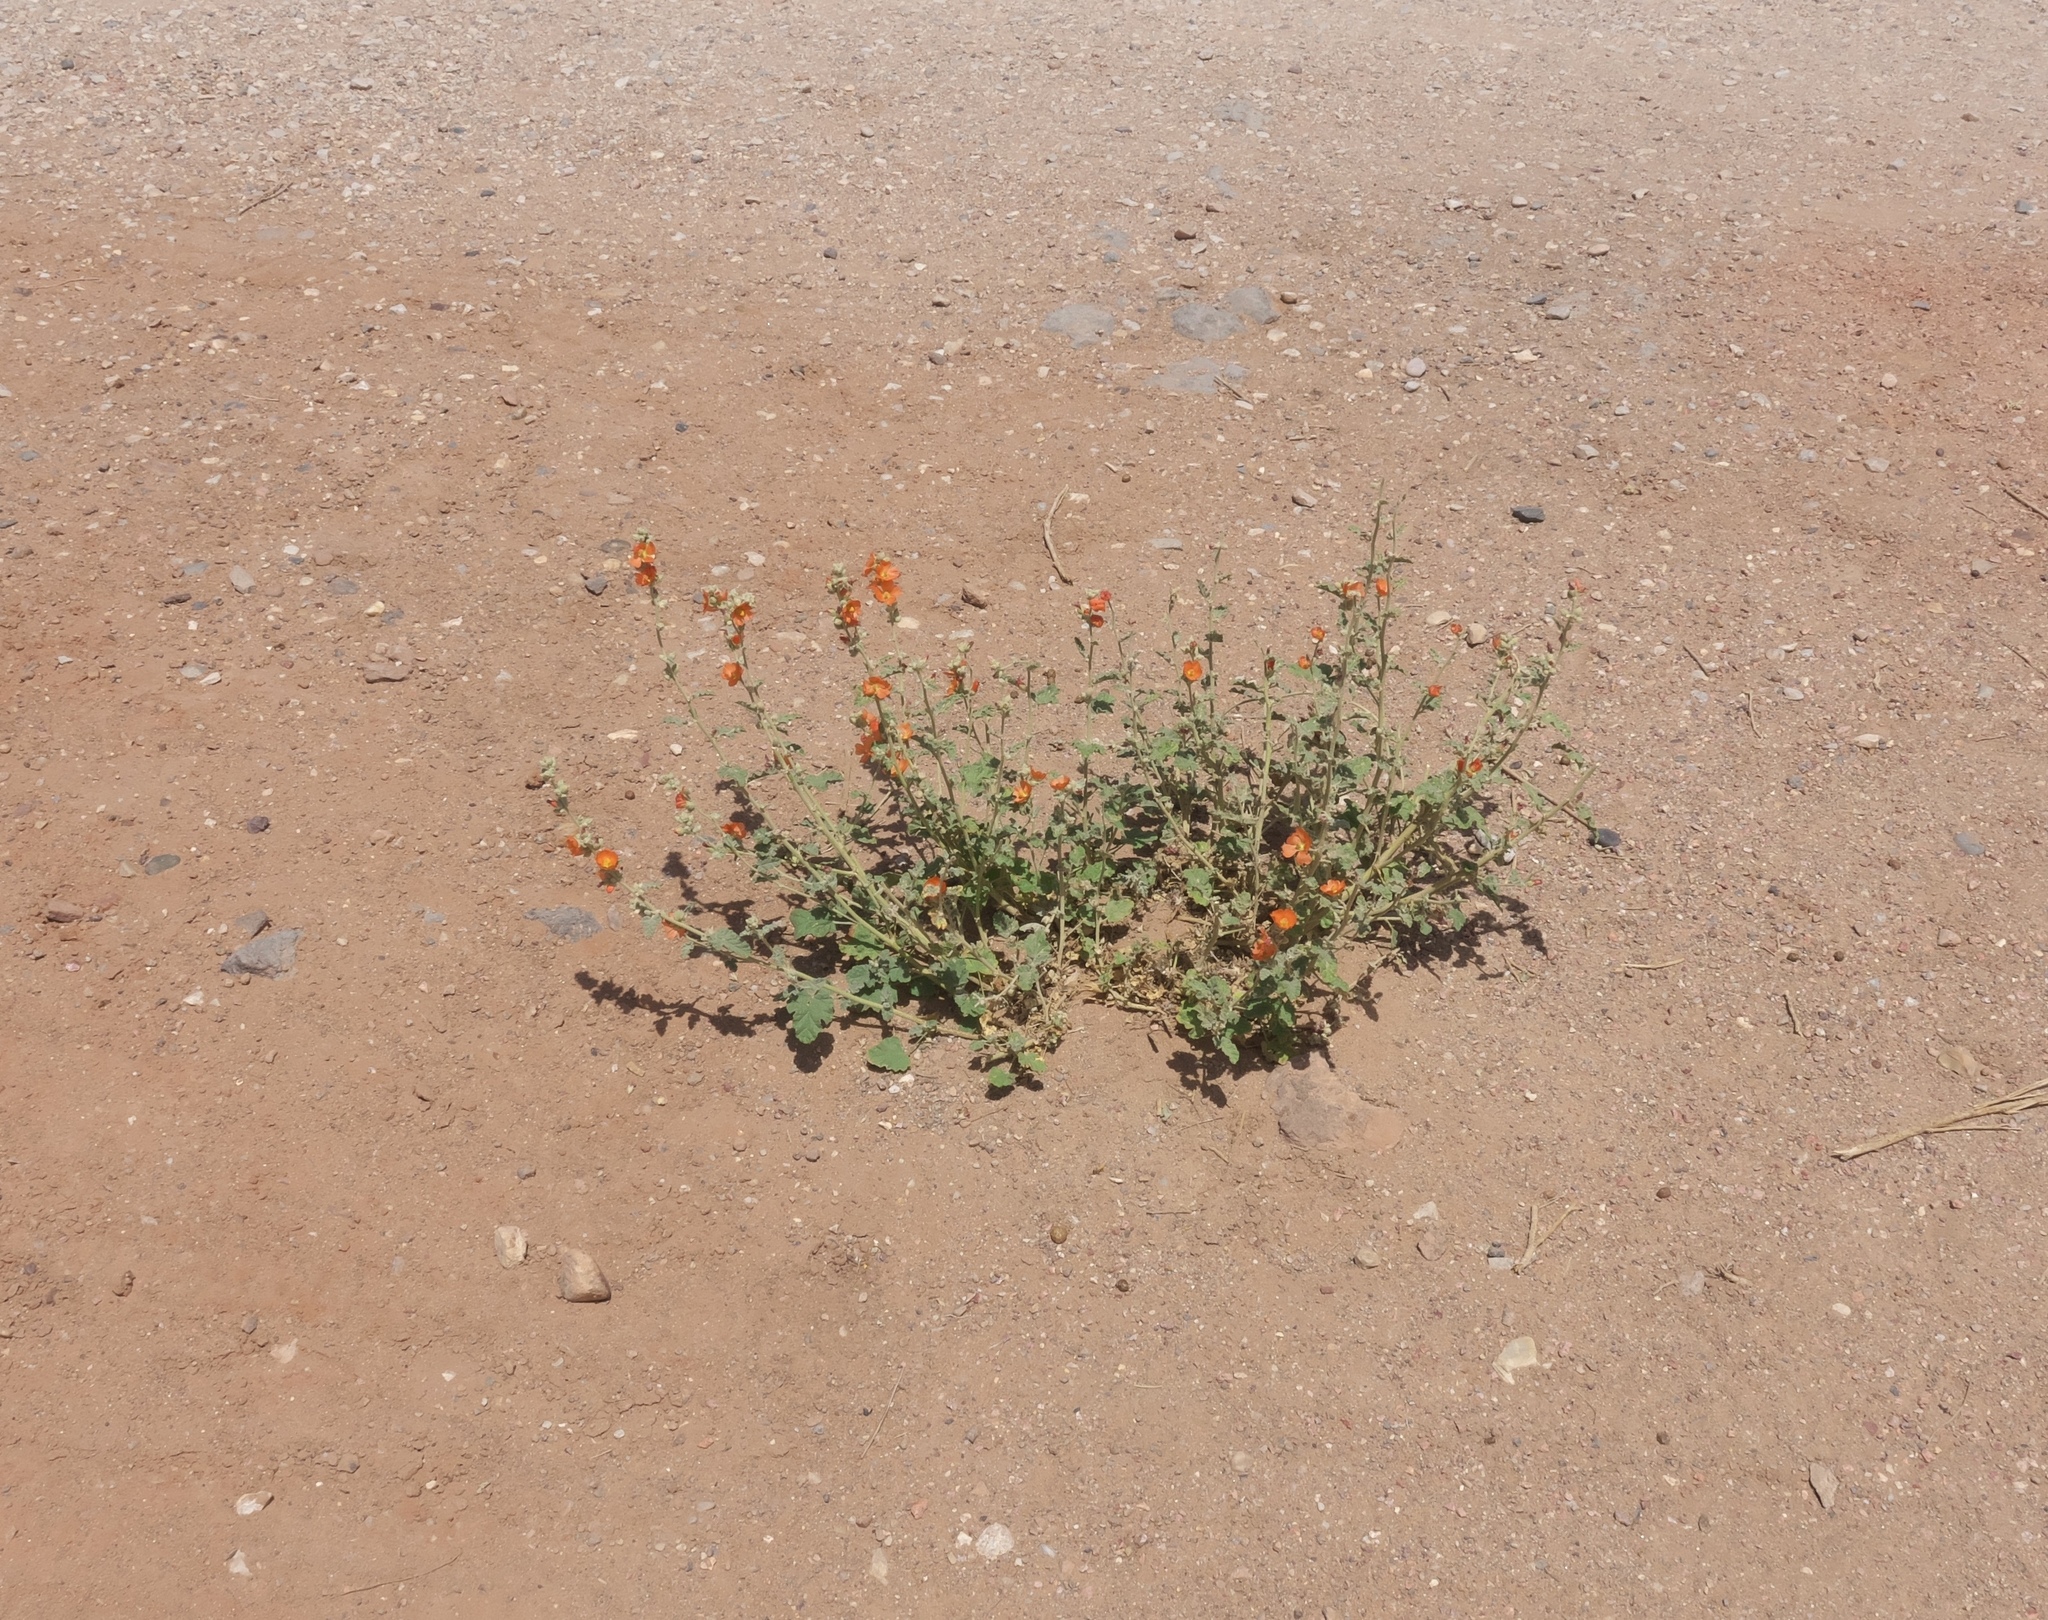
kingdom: Plantae
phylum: Tracheophyta
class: Magnoliopsida
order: Malvales
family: Malvaceae
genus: Sphaeralcea
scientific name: Sphaeralcea ambigua
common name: Apricot globe-mallow
